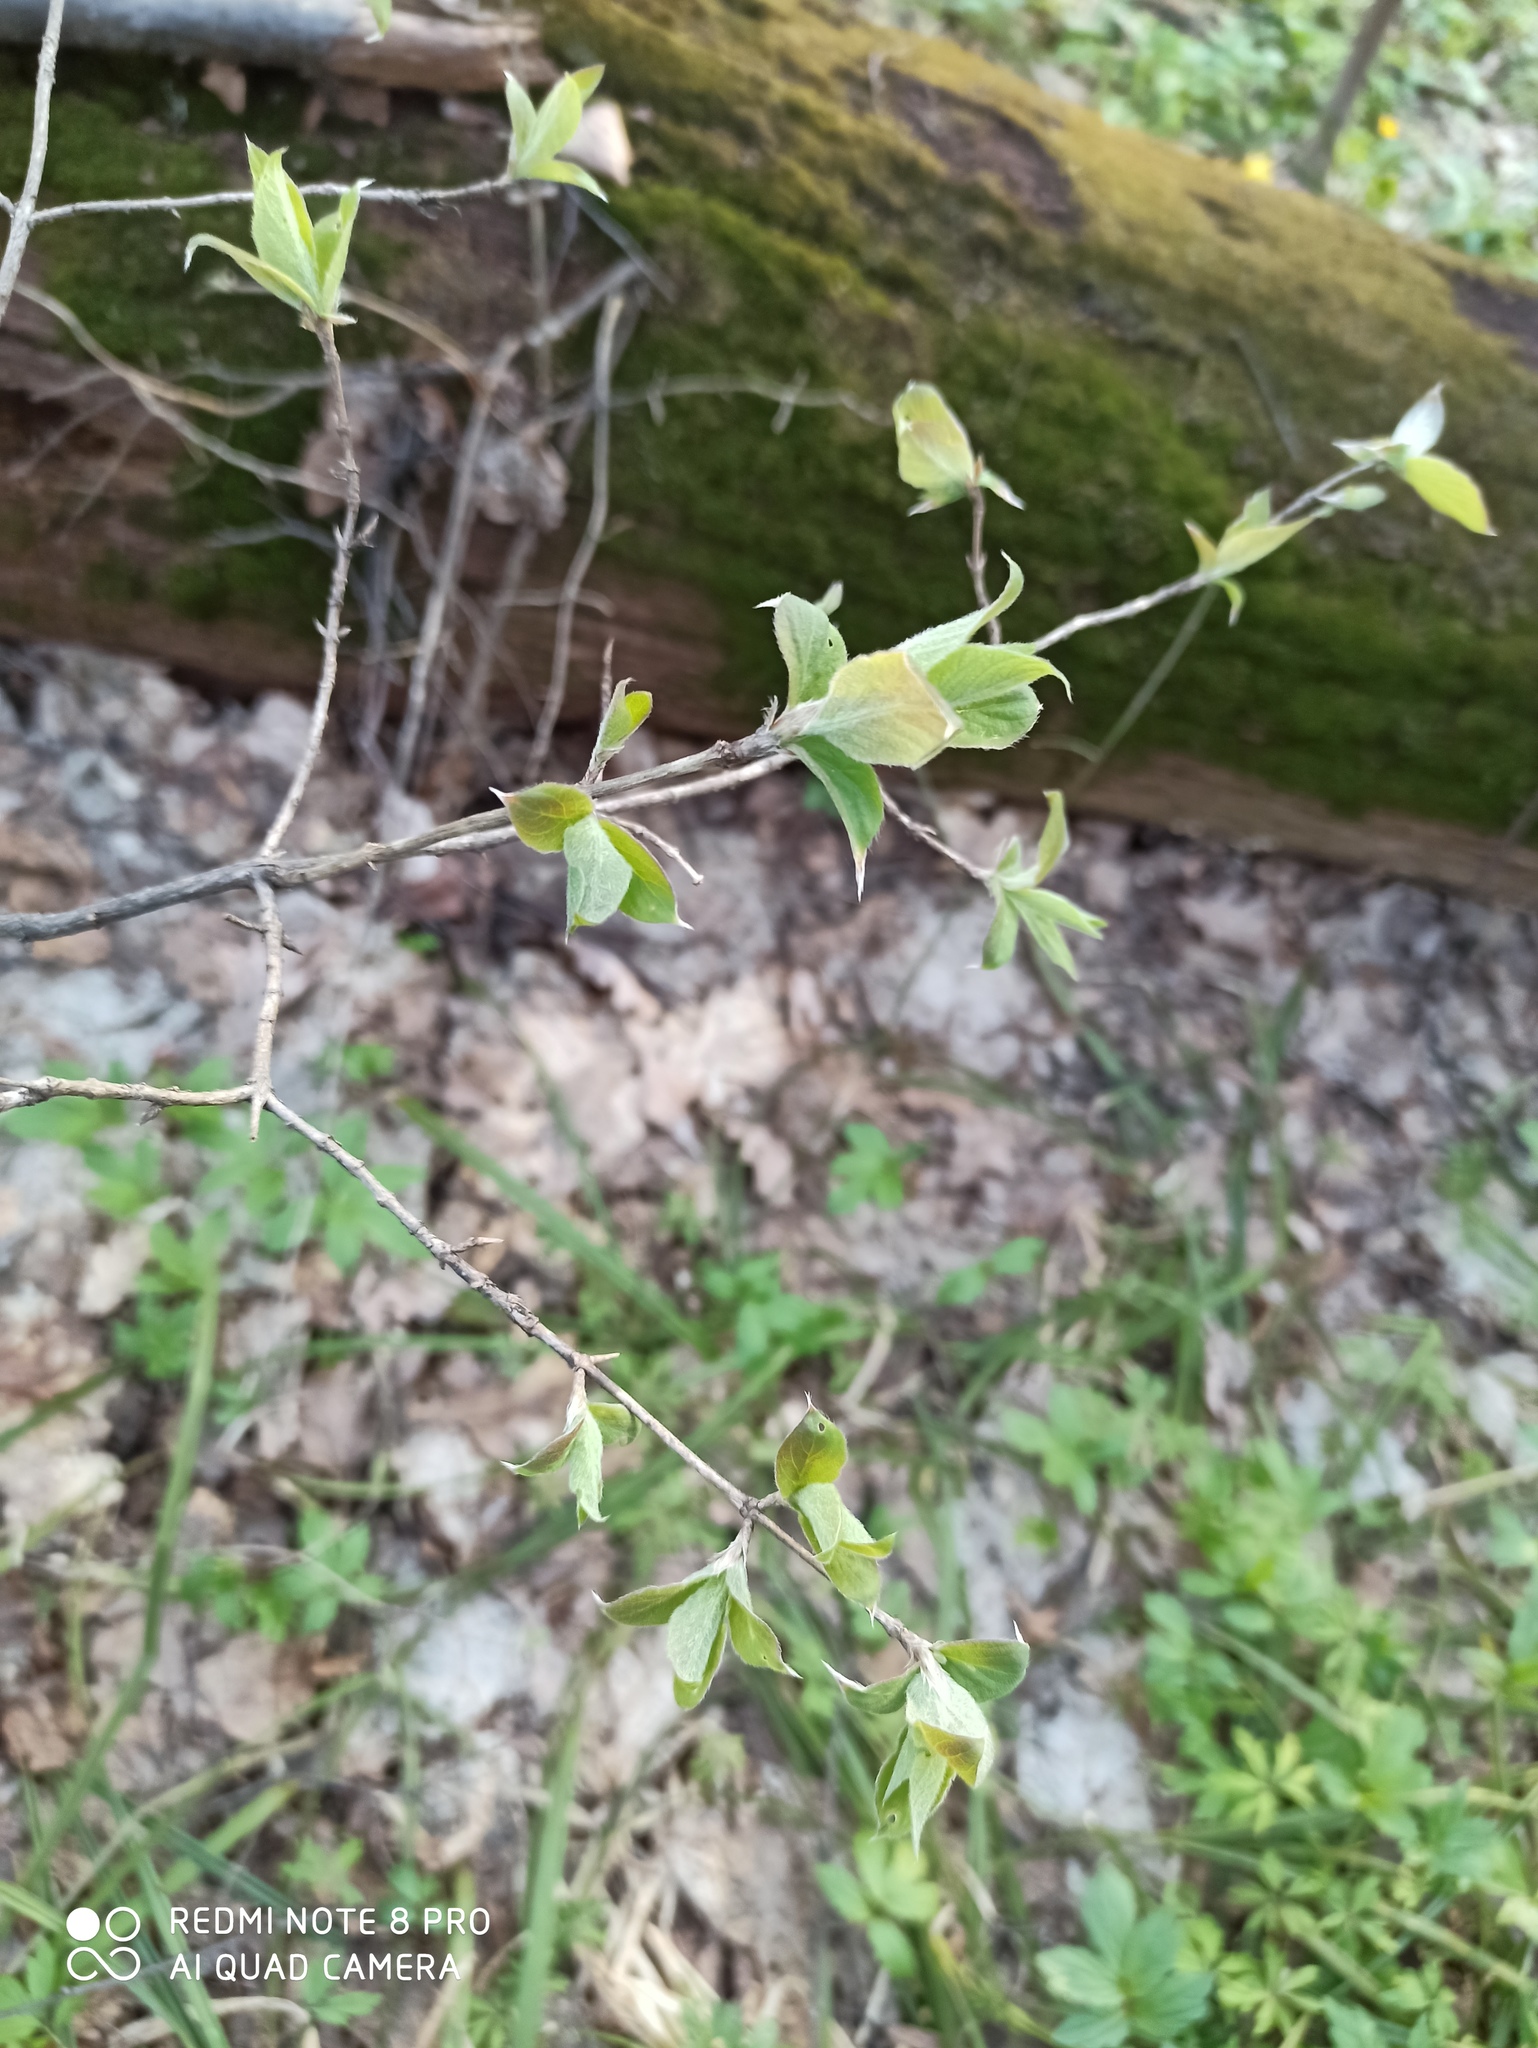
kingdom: Plantae
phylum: Tracheophyta
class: Magnoliopsida
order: Dipsacales
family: Caprifoliaceae
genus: Lonicera
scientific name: Lonicera xylosteum
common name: Fly honeysuckle
